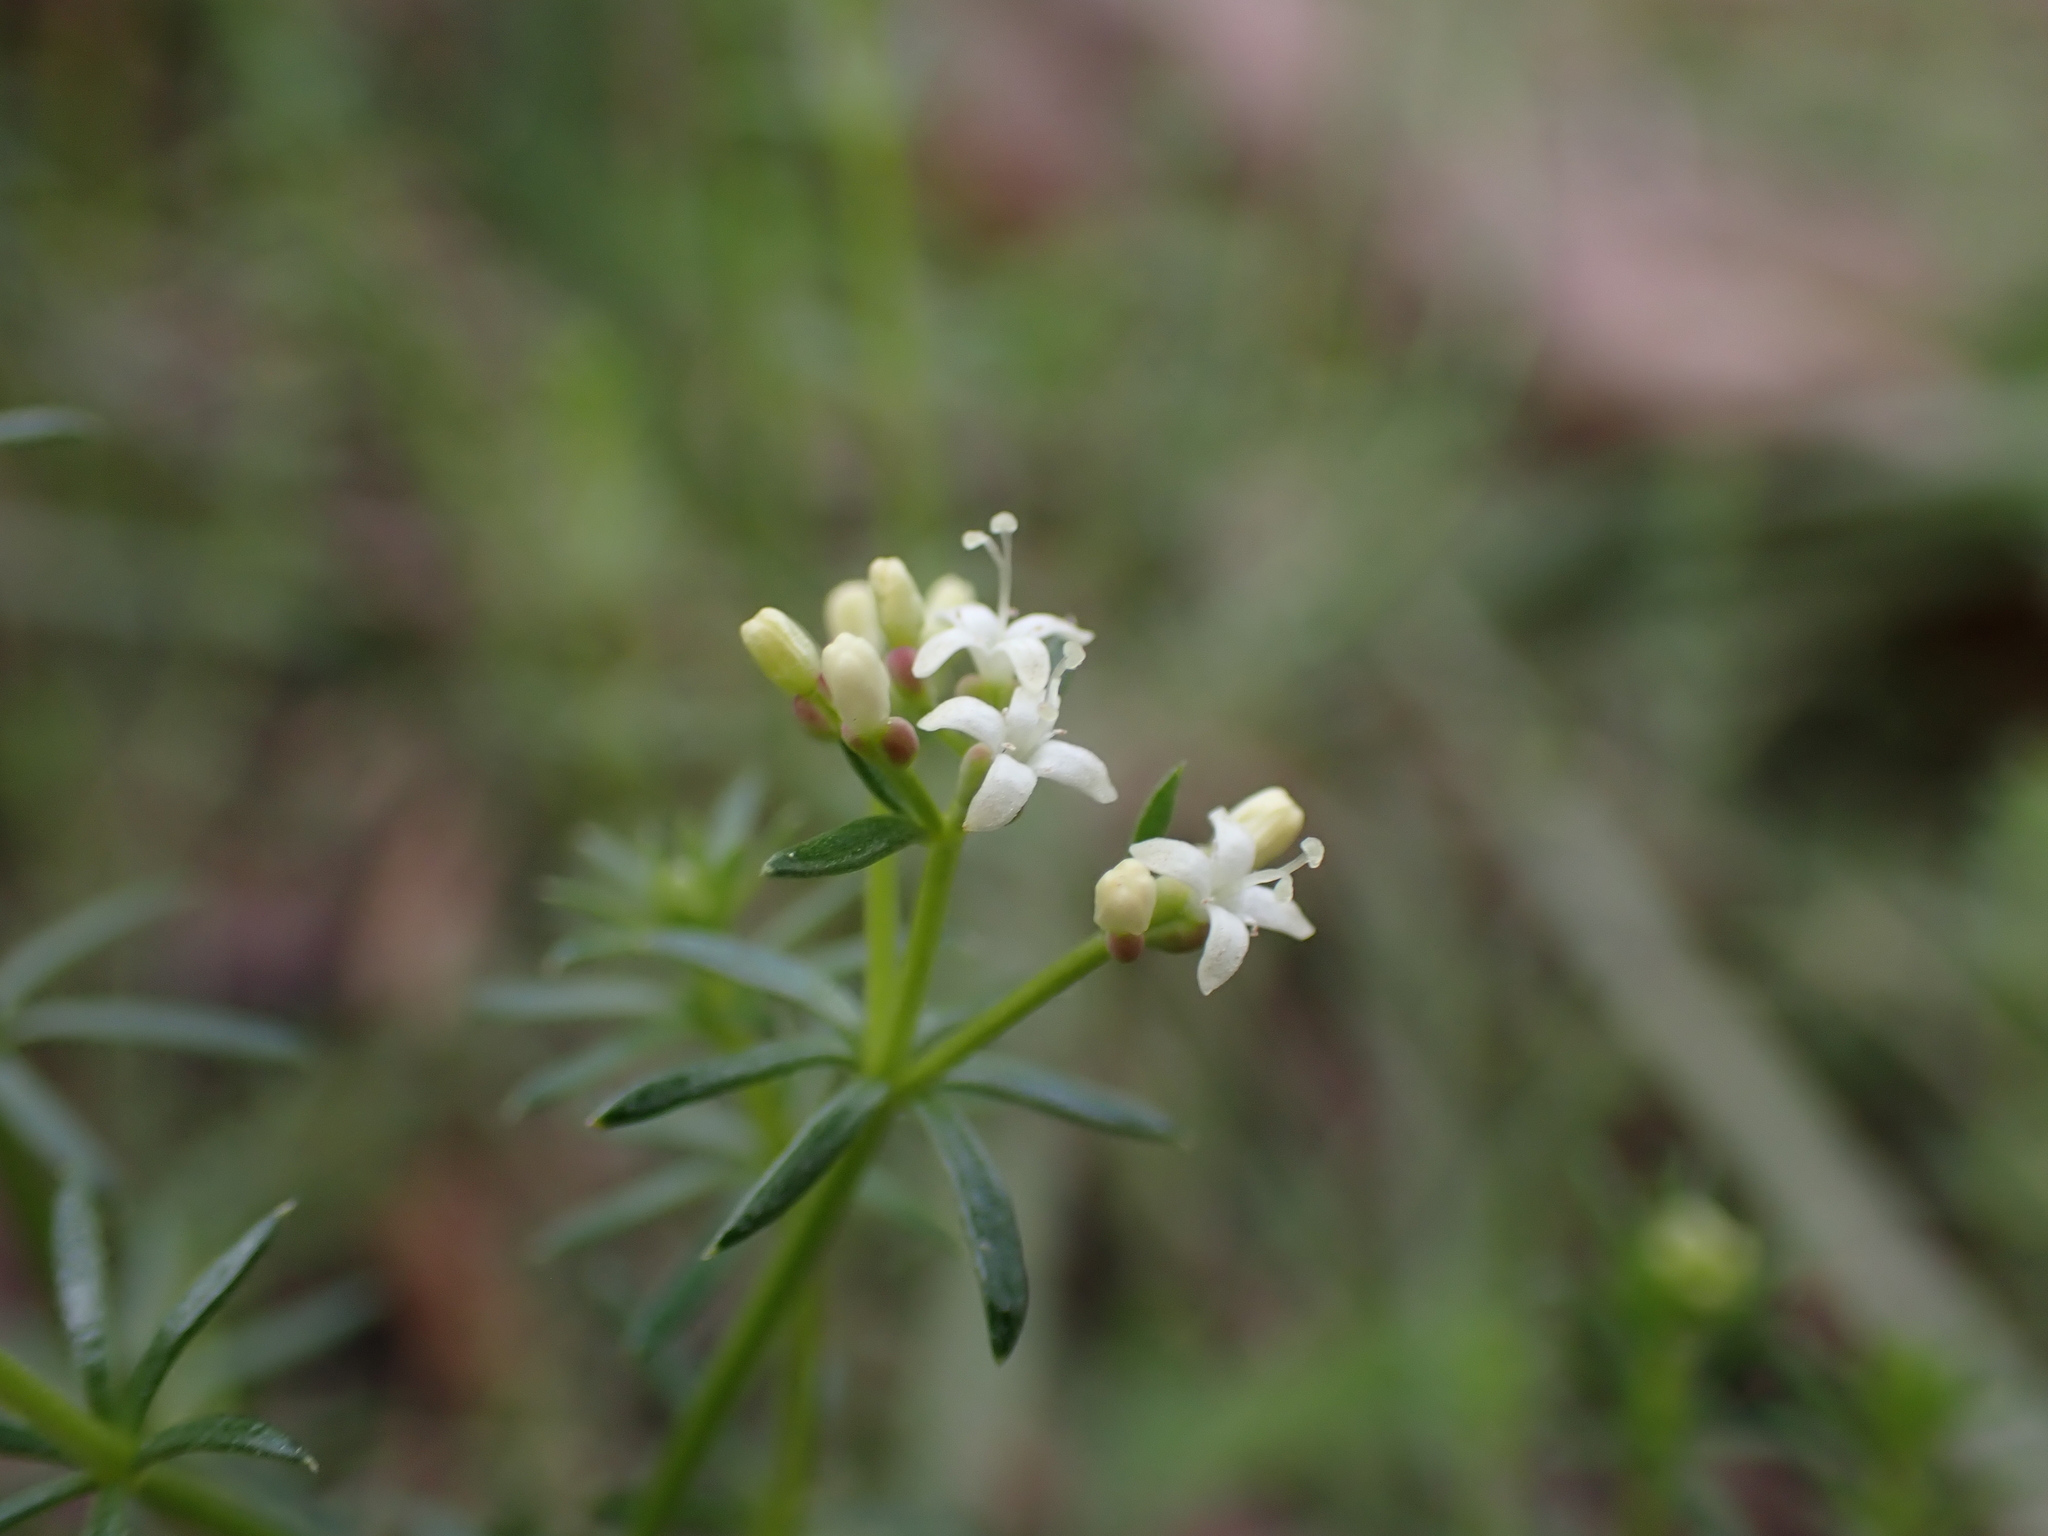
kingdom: Plantae
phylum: Tracheophyta
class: Magnoliopsida
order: Gentianales
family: Rubiaceae
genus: Asperula
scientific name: Asperula conferta
